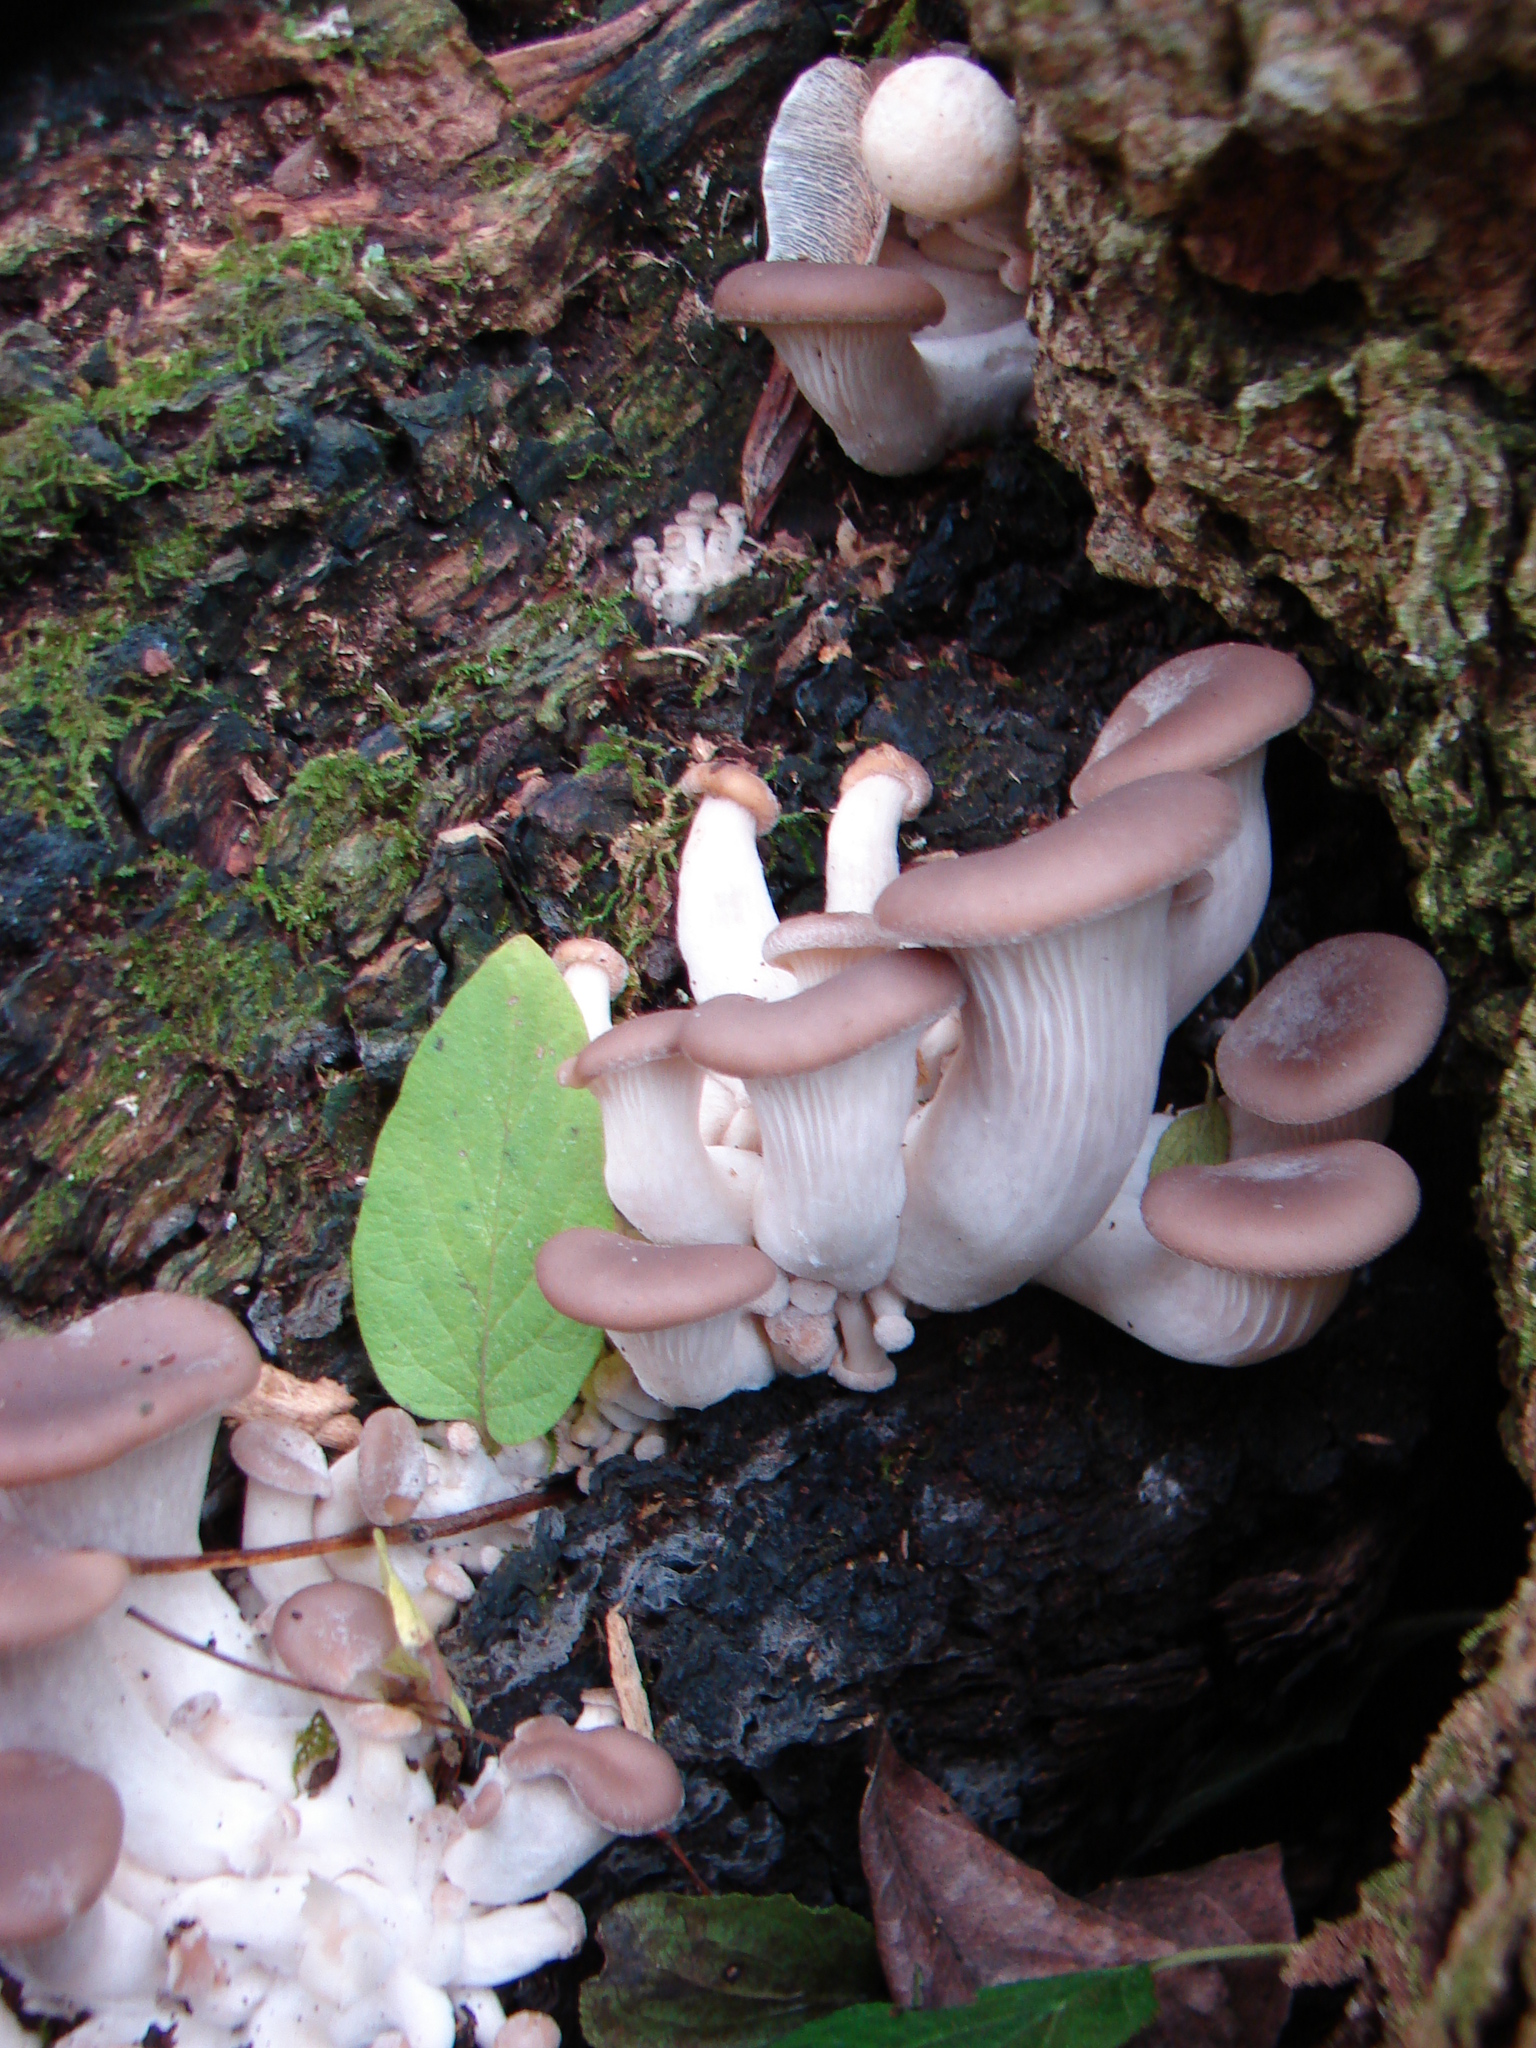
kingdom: Fungi
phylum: Basidiomycota
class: Agaricomycetes
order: Agaricales
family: Pleurotaceae
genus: Pleurotus
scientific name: Pleurotus ostreatus
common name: Oyster mushroom
